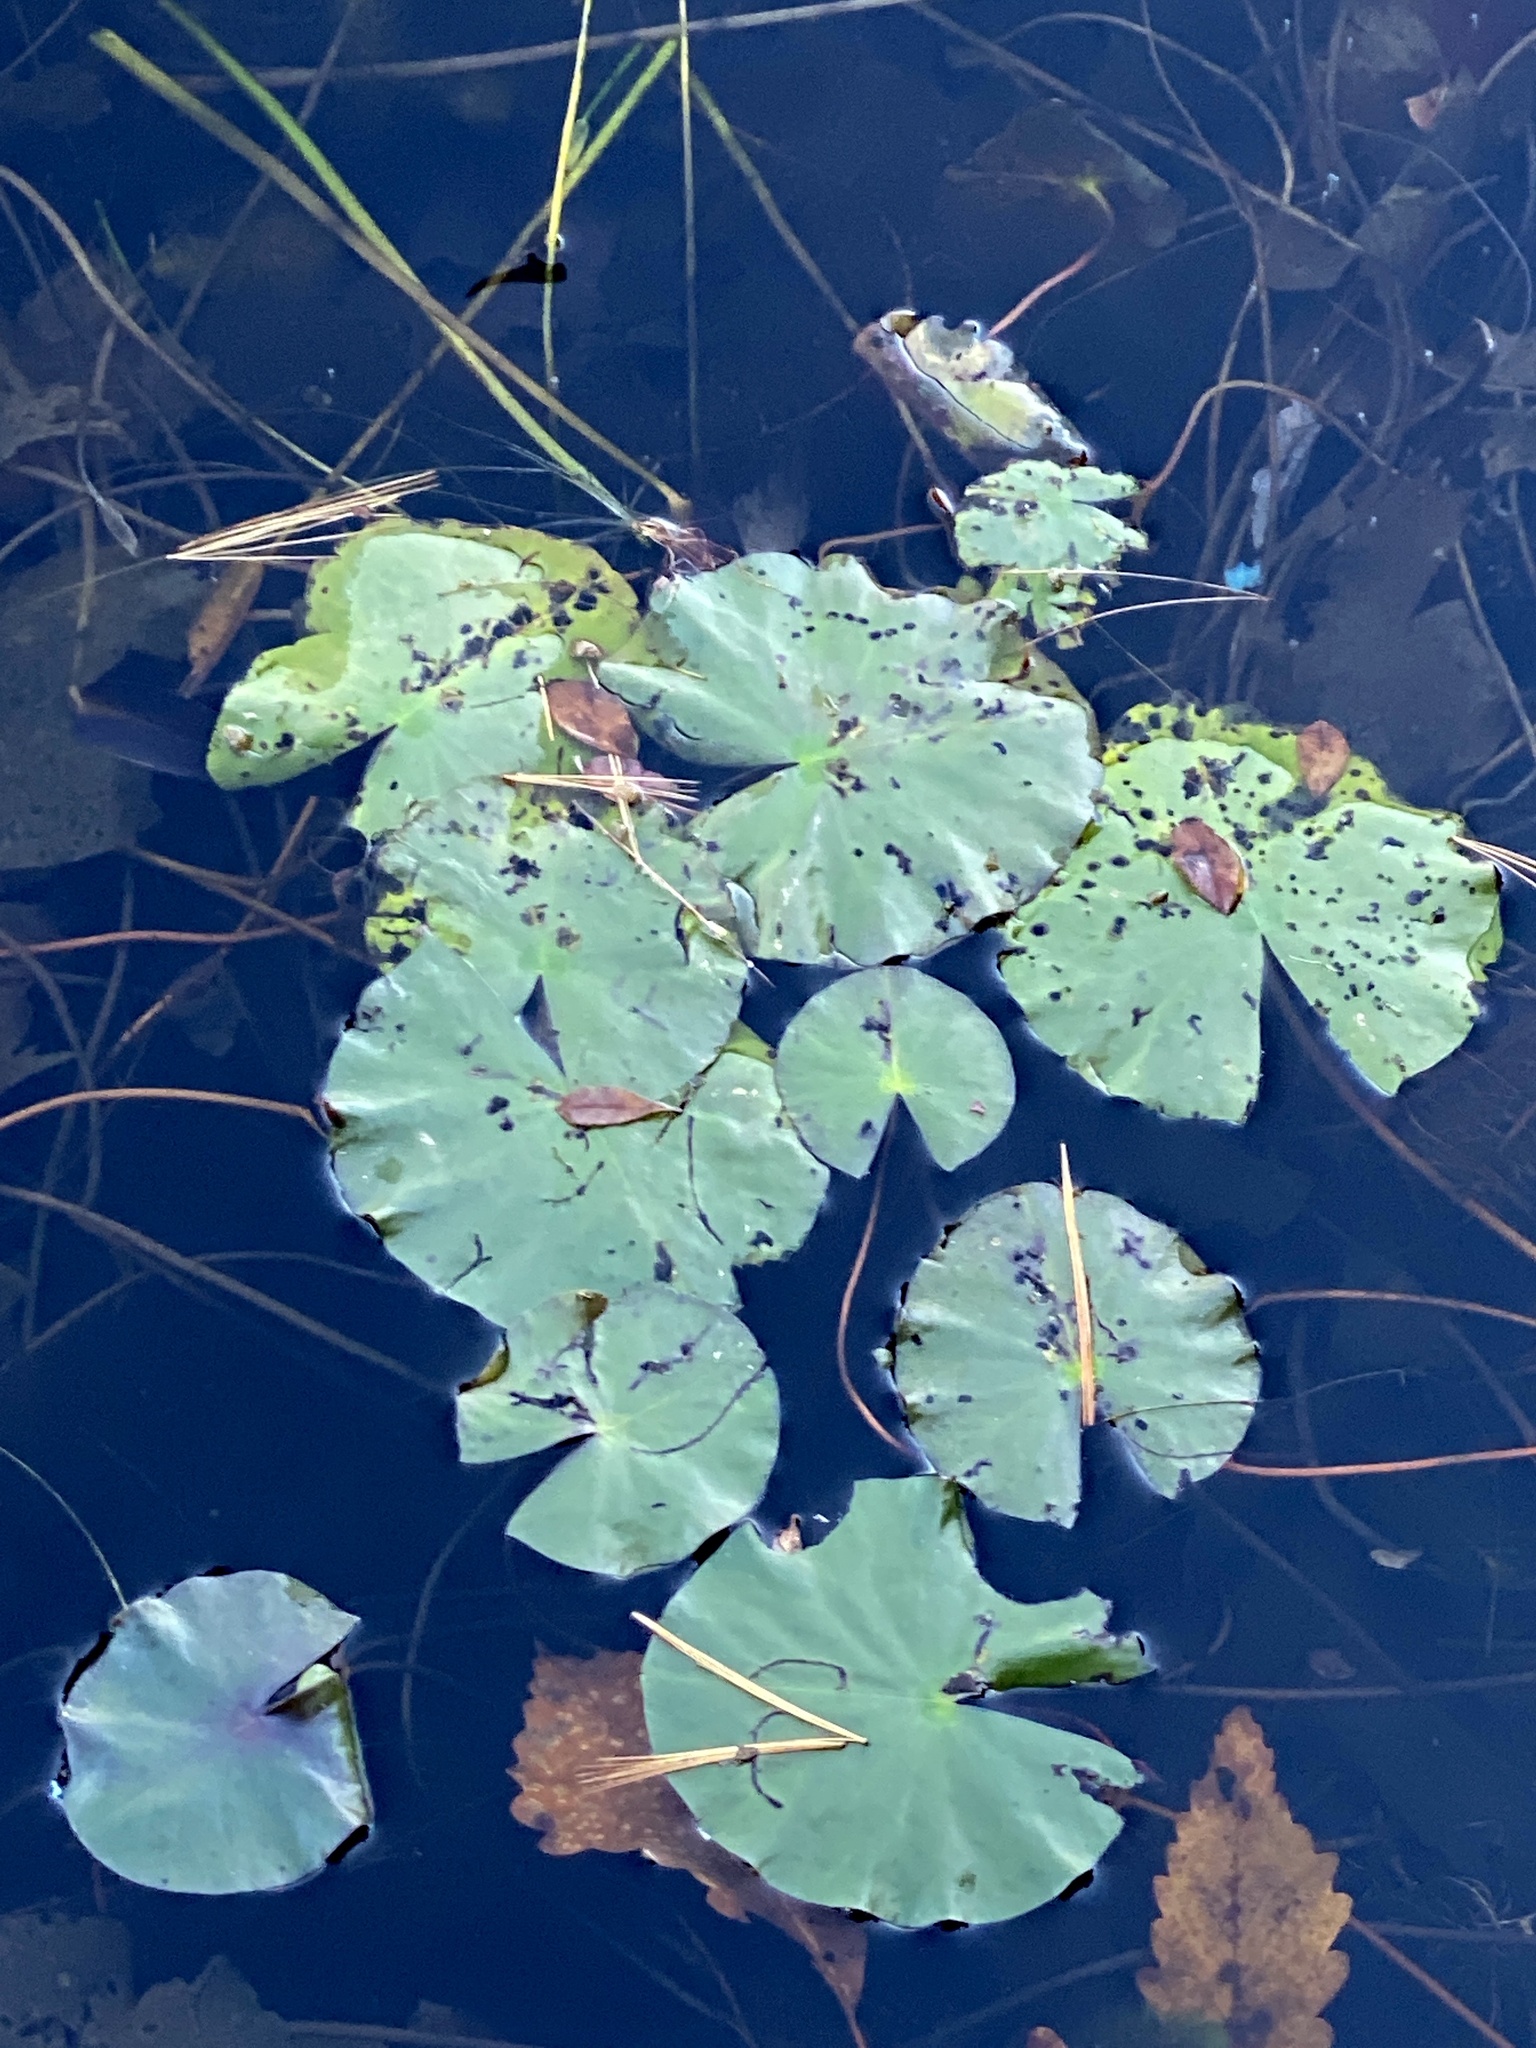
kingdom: Plantae
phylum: Tracheophyta
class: Magnoliopsida
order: Nymphaeales
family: Nymphaeaceae
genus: Nymphaea
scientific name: Nymphaea odorata
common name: Fragrant water-lily
